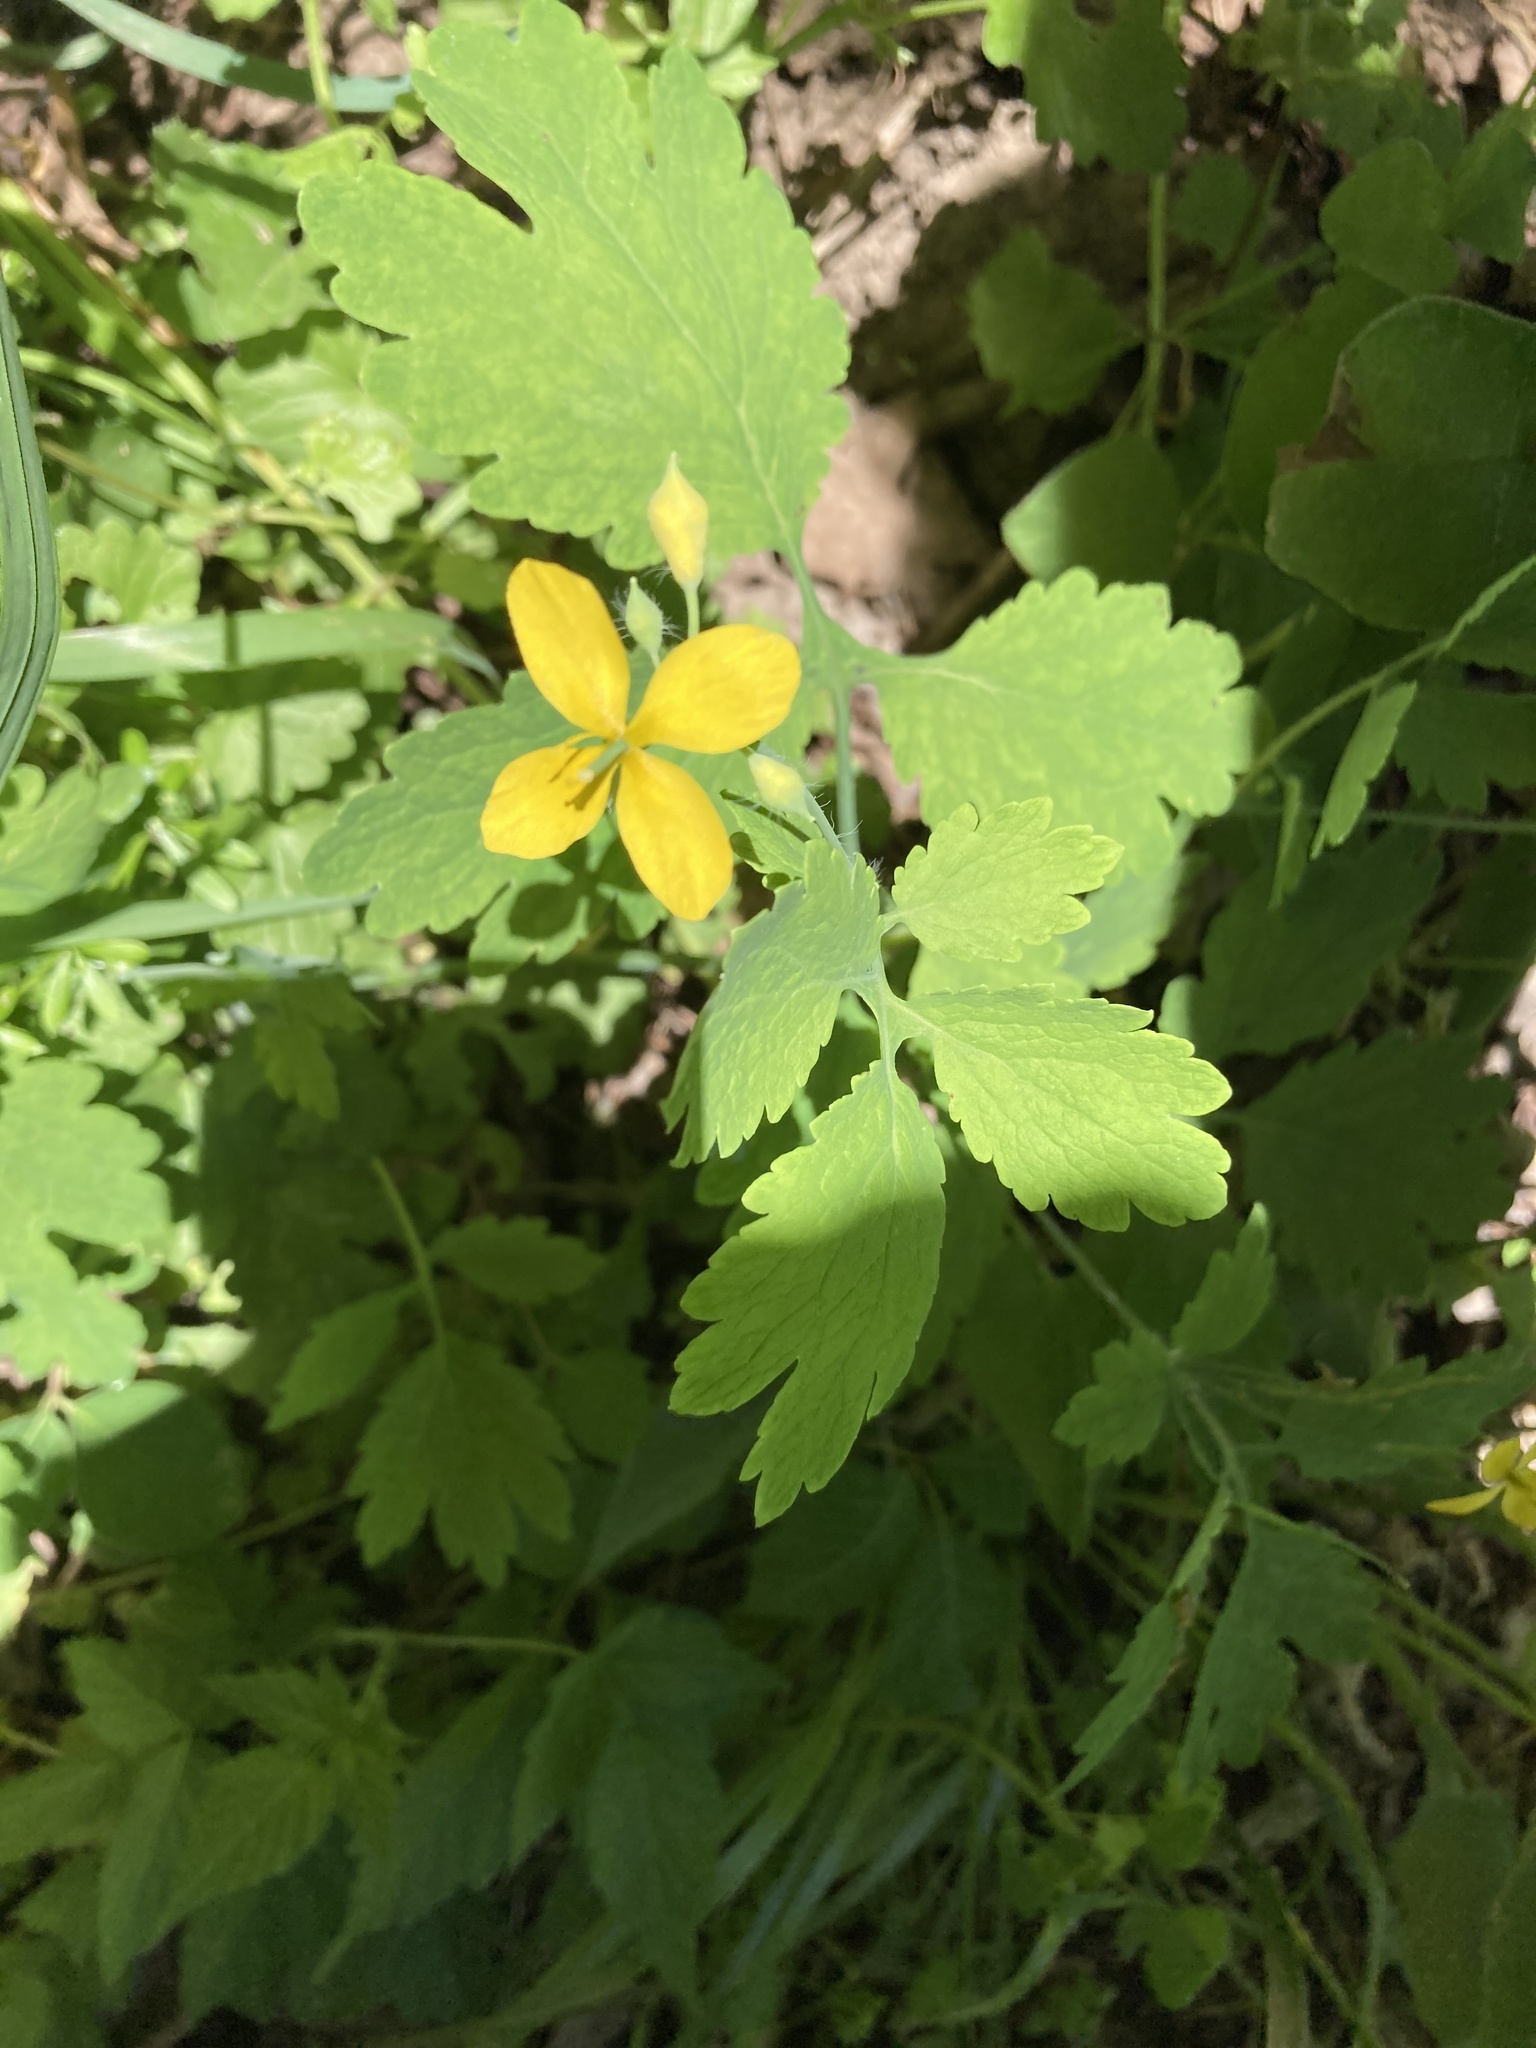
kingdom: Plantae
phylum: Tracheophyta
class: Magnoliopsida
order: Ranunculales
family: Papaveraceae
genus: Chelidonium
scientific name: Chelidonium majus
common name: Greater celandine
